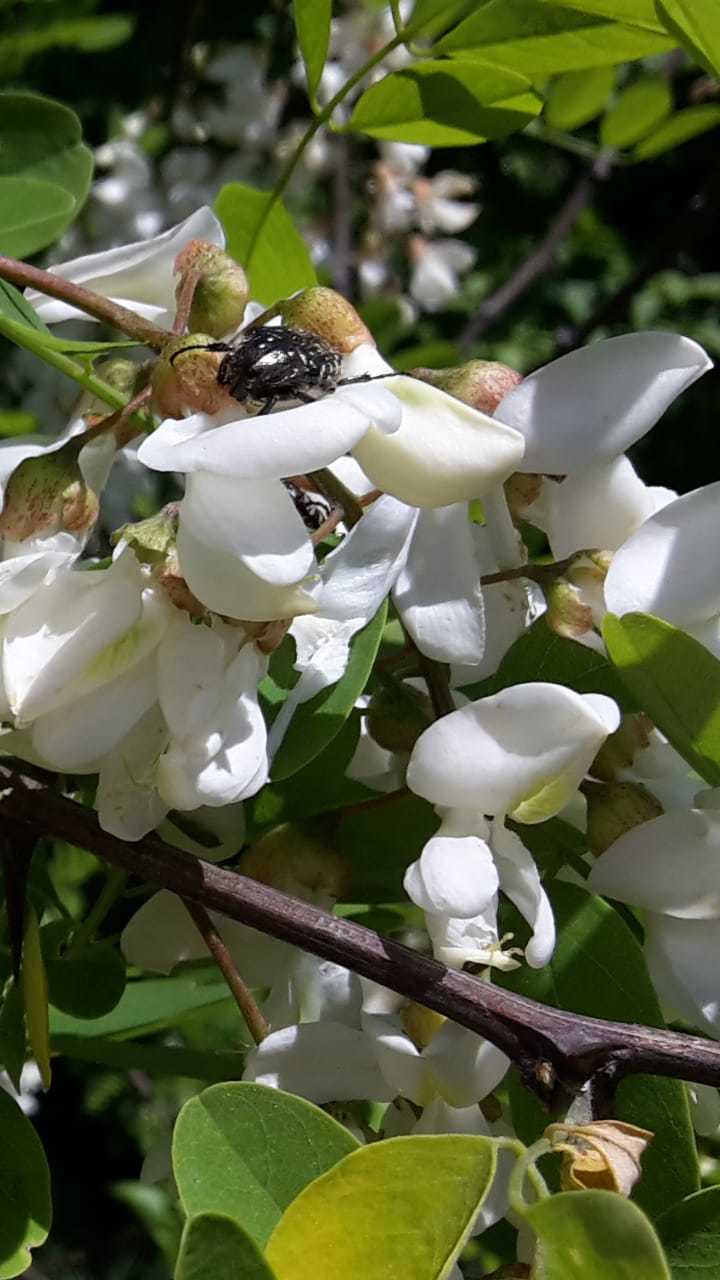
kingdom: Animalia
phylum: Arthropoda
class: Insecta
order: Coleoptera
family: Scarabaeidae
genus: Oxythyrea
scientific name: Oxythyrea funesta
